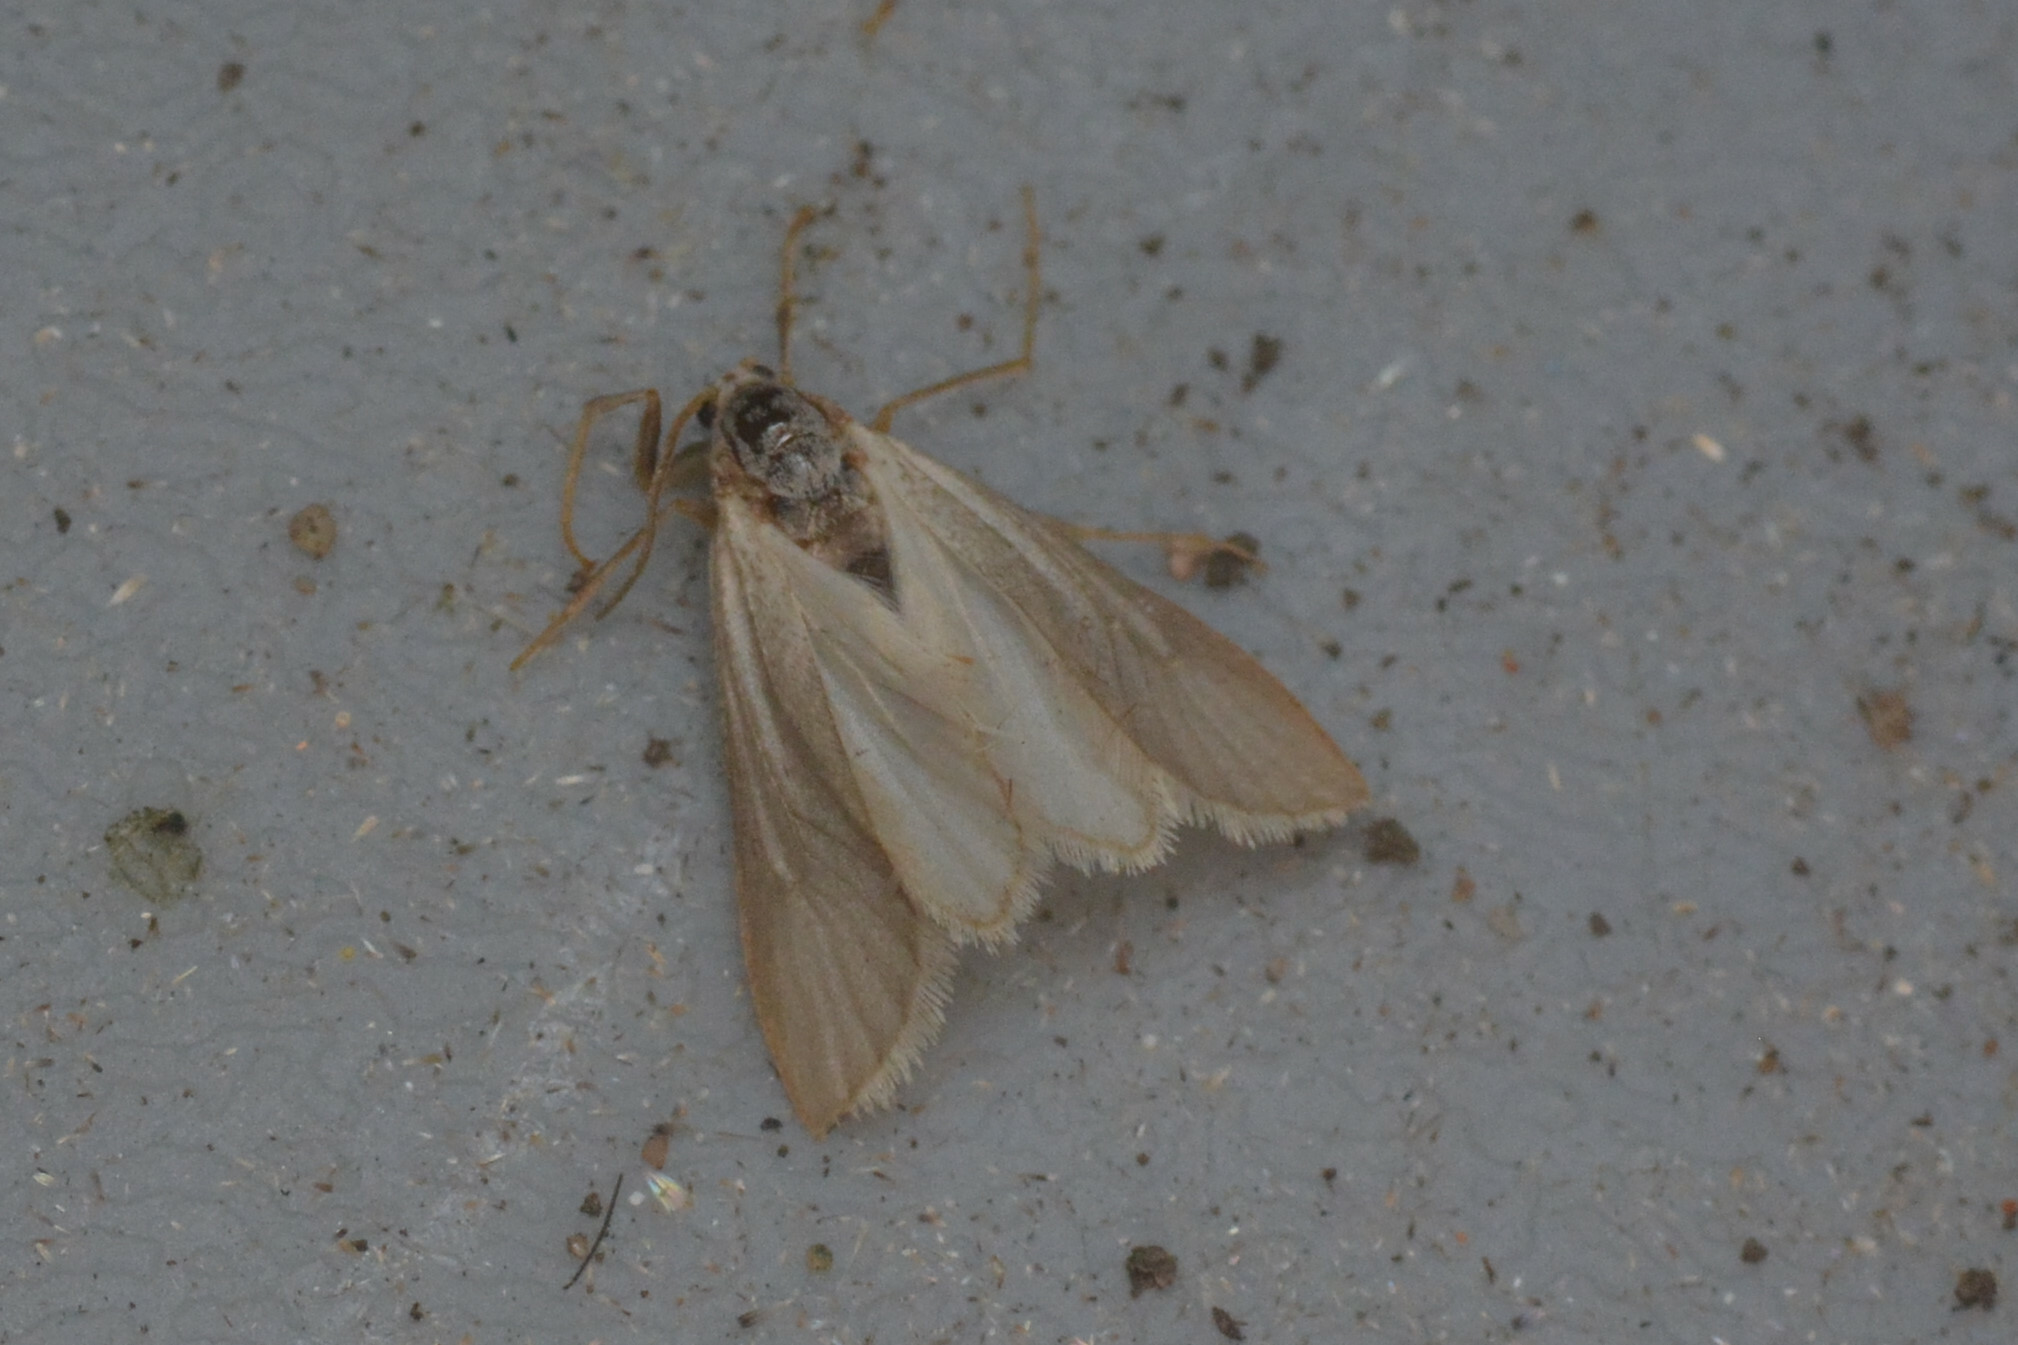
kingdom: Animalia
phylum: Arthropoda
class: Insecta
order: Lepidoptera
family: Crambidae
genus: Acentria
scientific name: Acentria ephemerella
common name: European water moth
